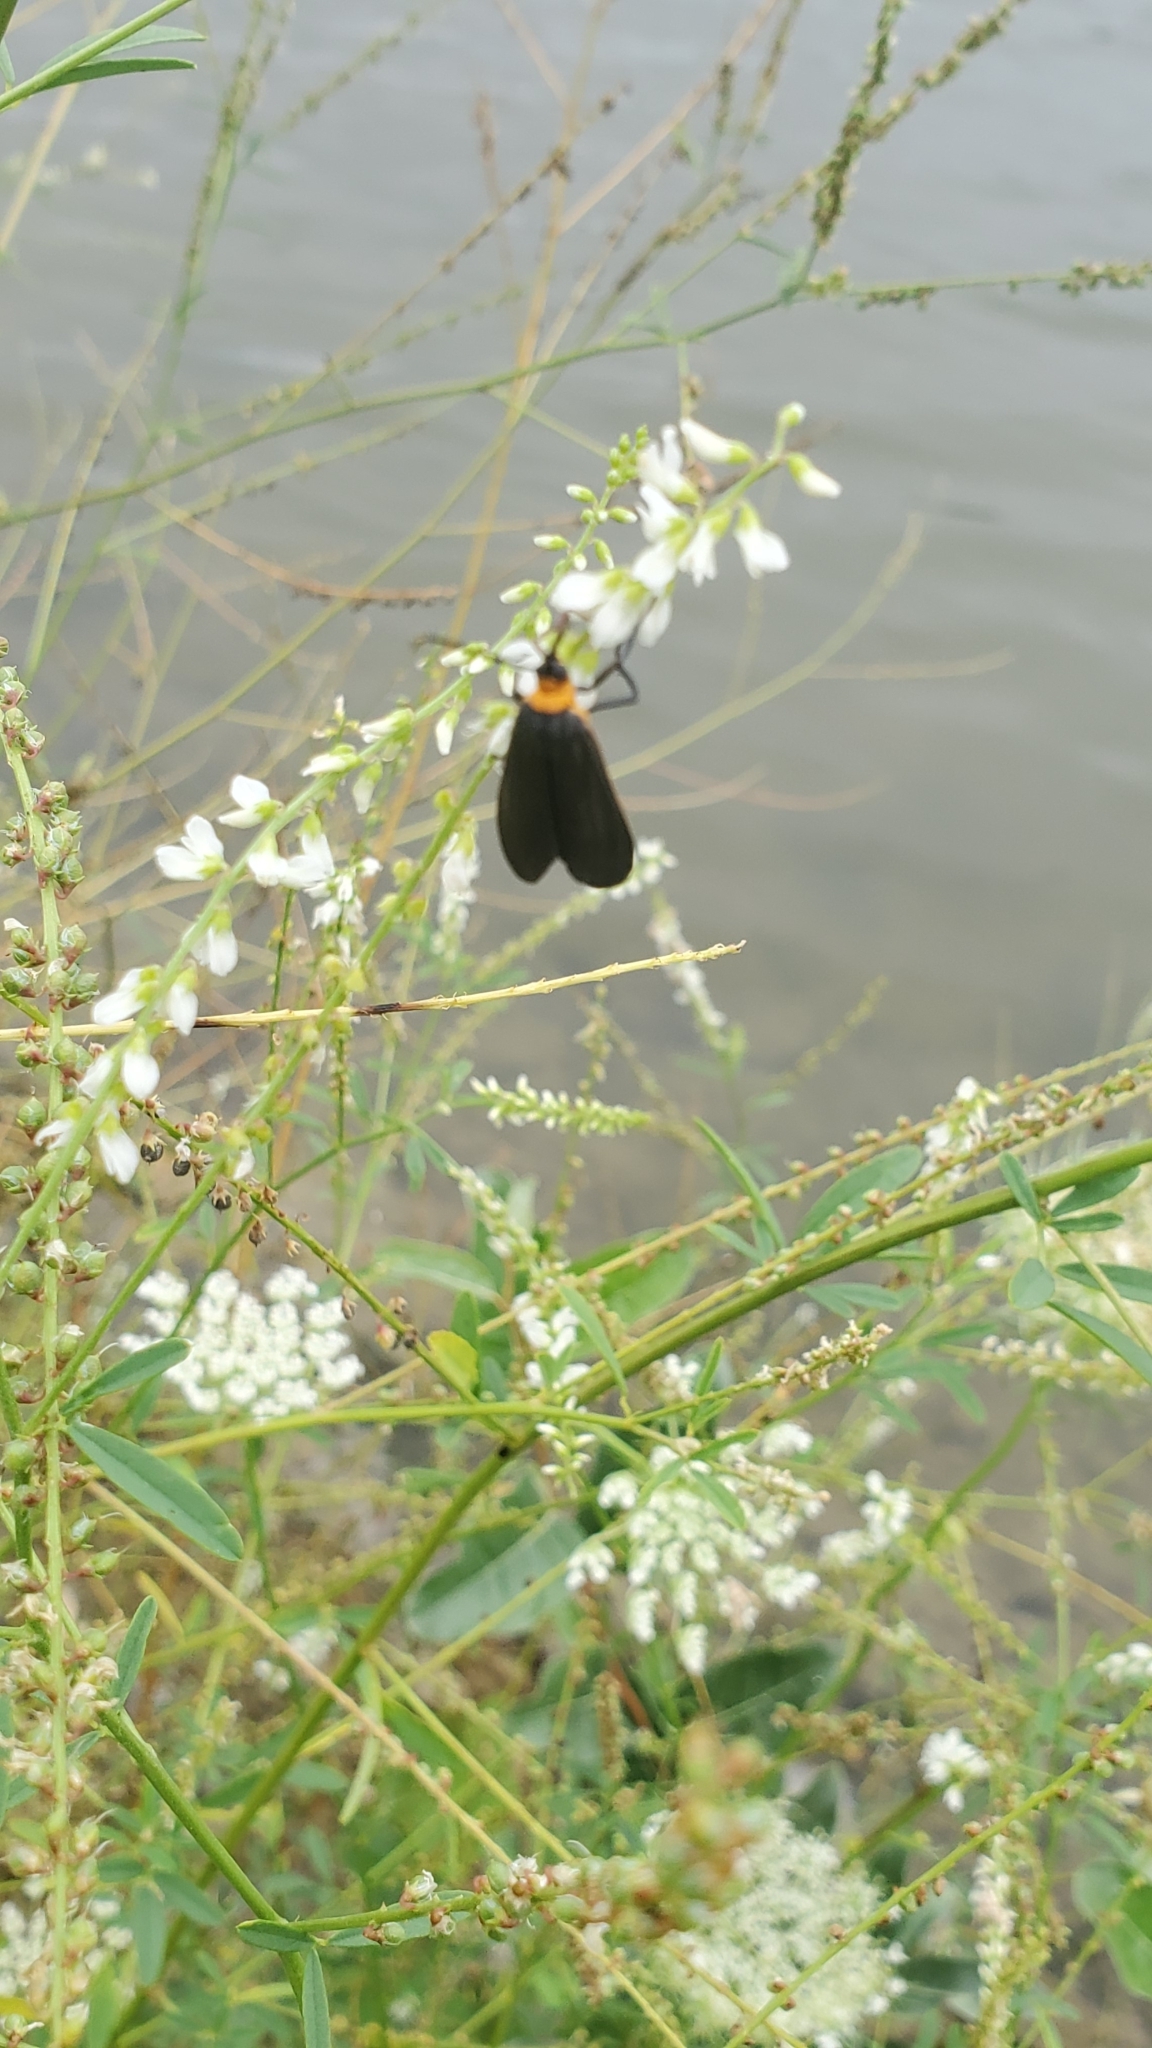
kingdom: Animalia
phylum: Arthropoda
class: Insecta
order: Lepidoptera
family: Erebidae
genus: Cisseps
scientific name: Cisseps fulvicollis
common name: Yellow-collared scape moth
